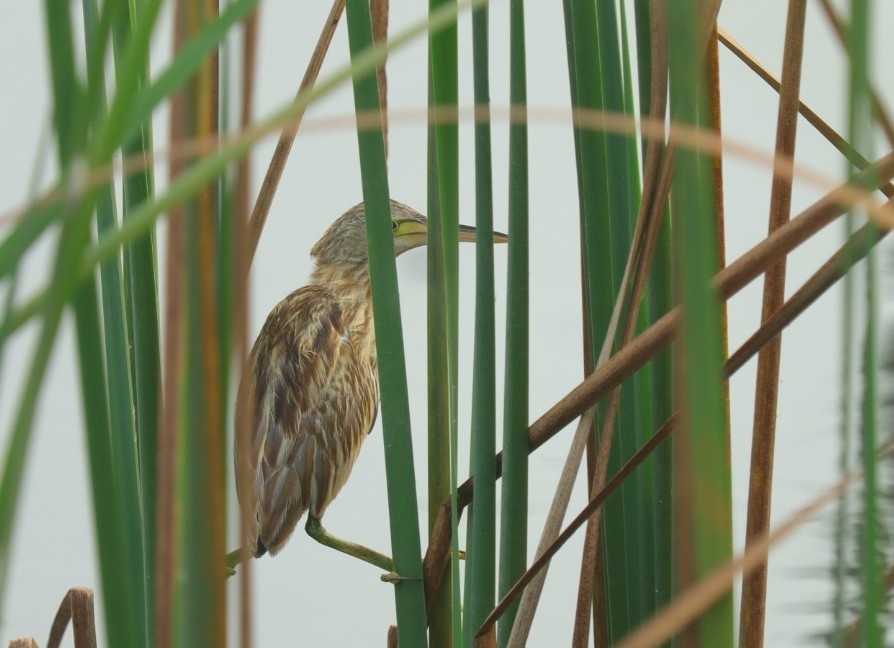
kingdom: Animalia
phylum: Chordata
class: Aves
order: Pelecaniformes
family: Ardeidae
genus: Ixobrychus
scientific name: Ixobrychus sinensis
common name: Yellow bittern
